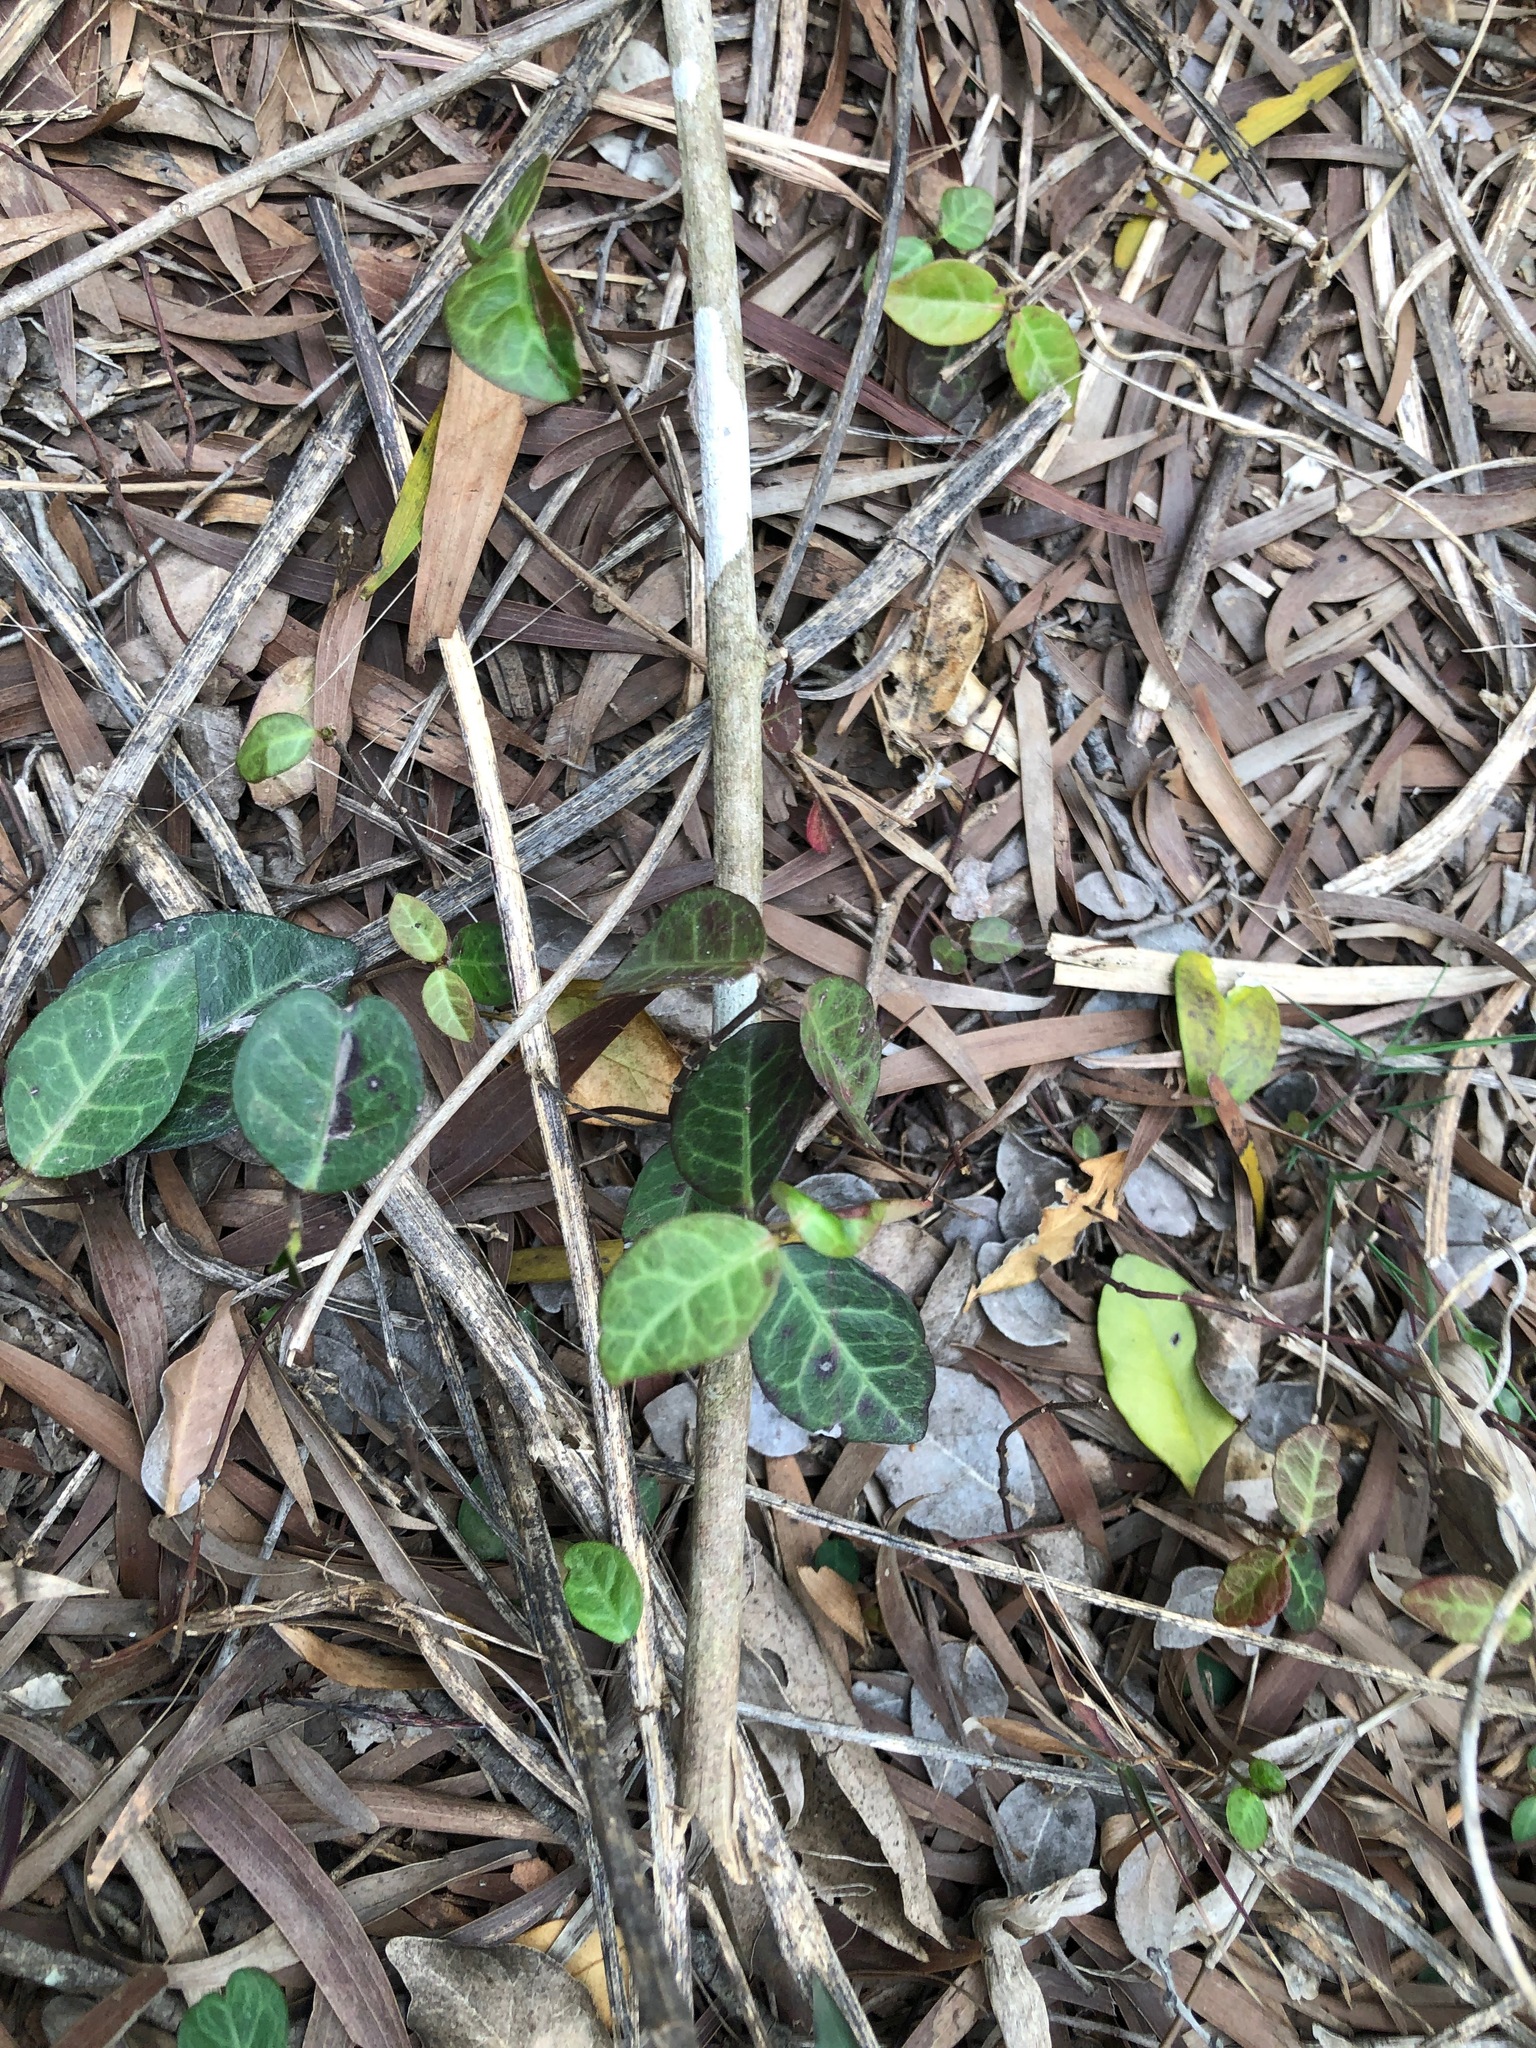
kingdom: Plantae
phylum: Tracheophyta
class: Magnoliopsida
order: Gentianales
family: Apocynaceae
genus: Trachelospermum
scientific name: Trachelospermum jasminoides
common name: Confederate jasmine
